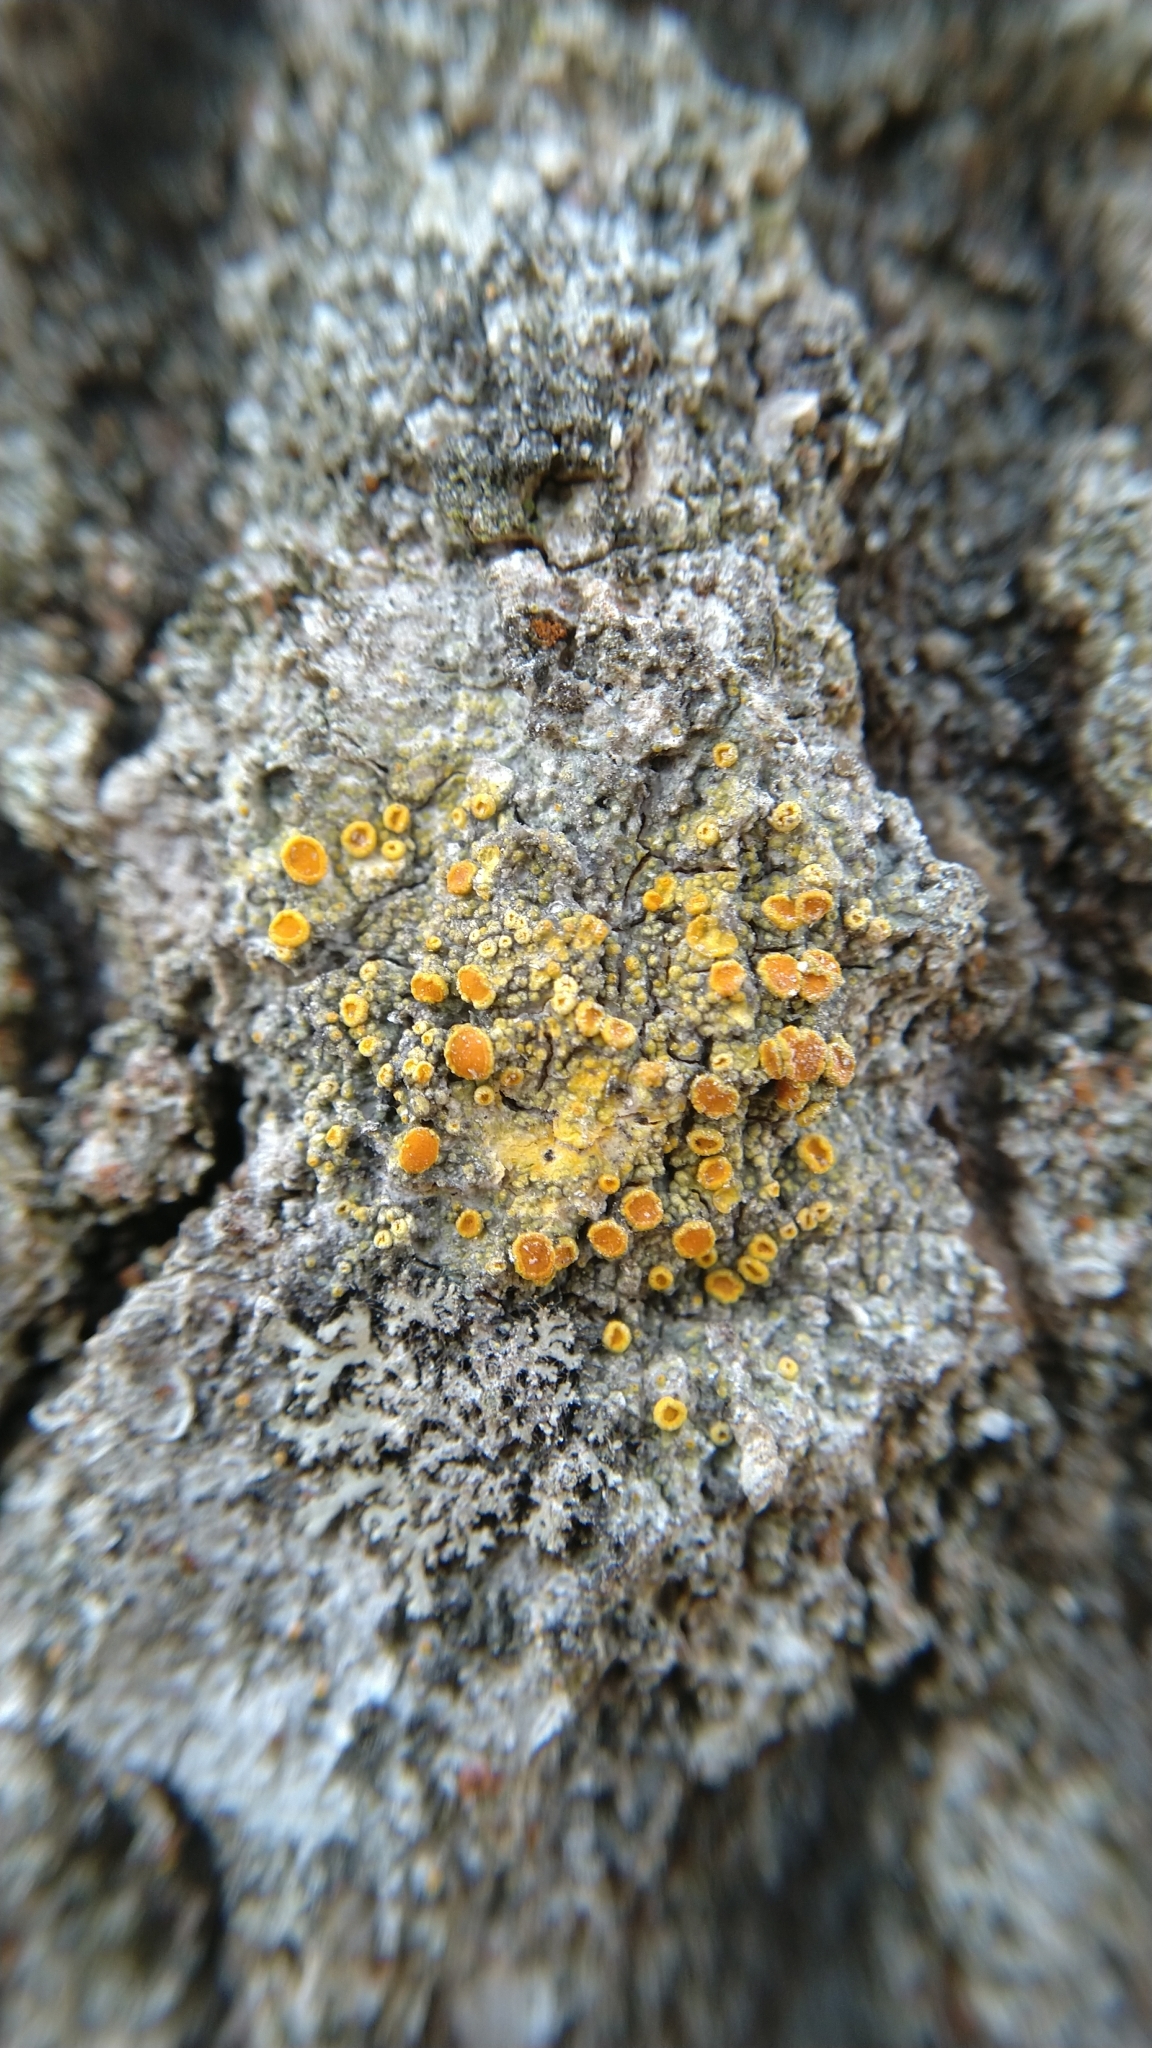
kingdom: Fungi
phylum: Ascomycota
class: Lecanoromycetes
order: Teloschistales
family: Teloschistaceae
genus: Opeltia
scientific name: Opeltia flavorubescens
